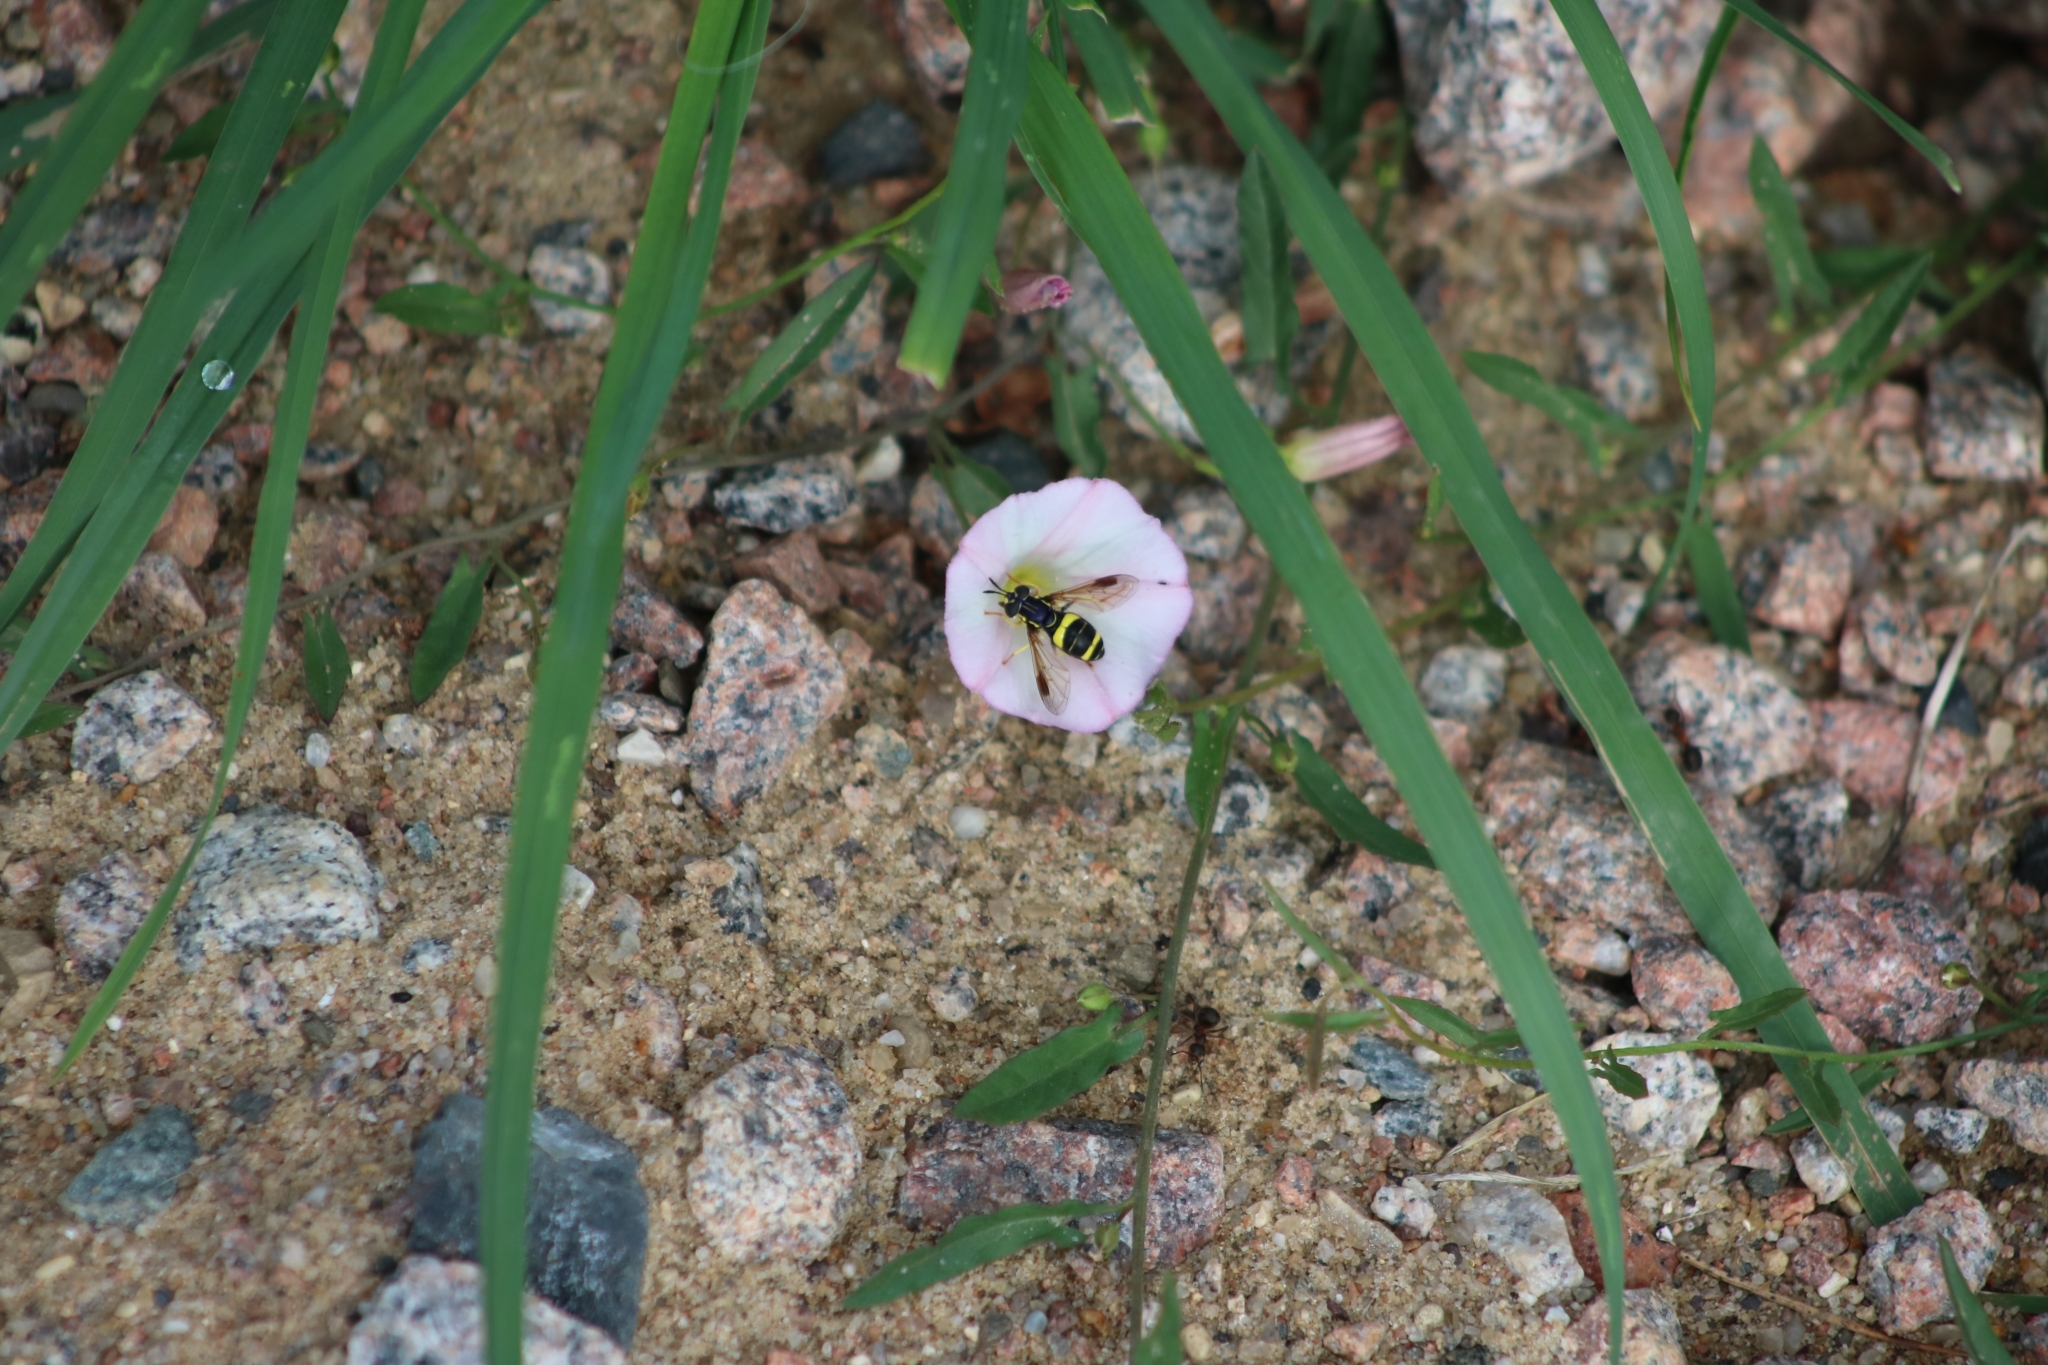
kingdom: Animalia
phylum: Arthropoda
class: Insecta
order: Diptera
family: Syrphidae
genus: Chrysotoxum
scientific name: Chrysotoxum bicincta
